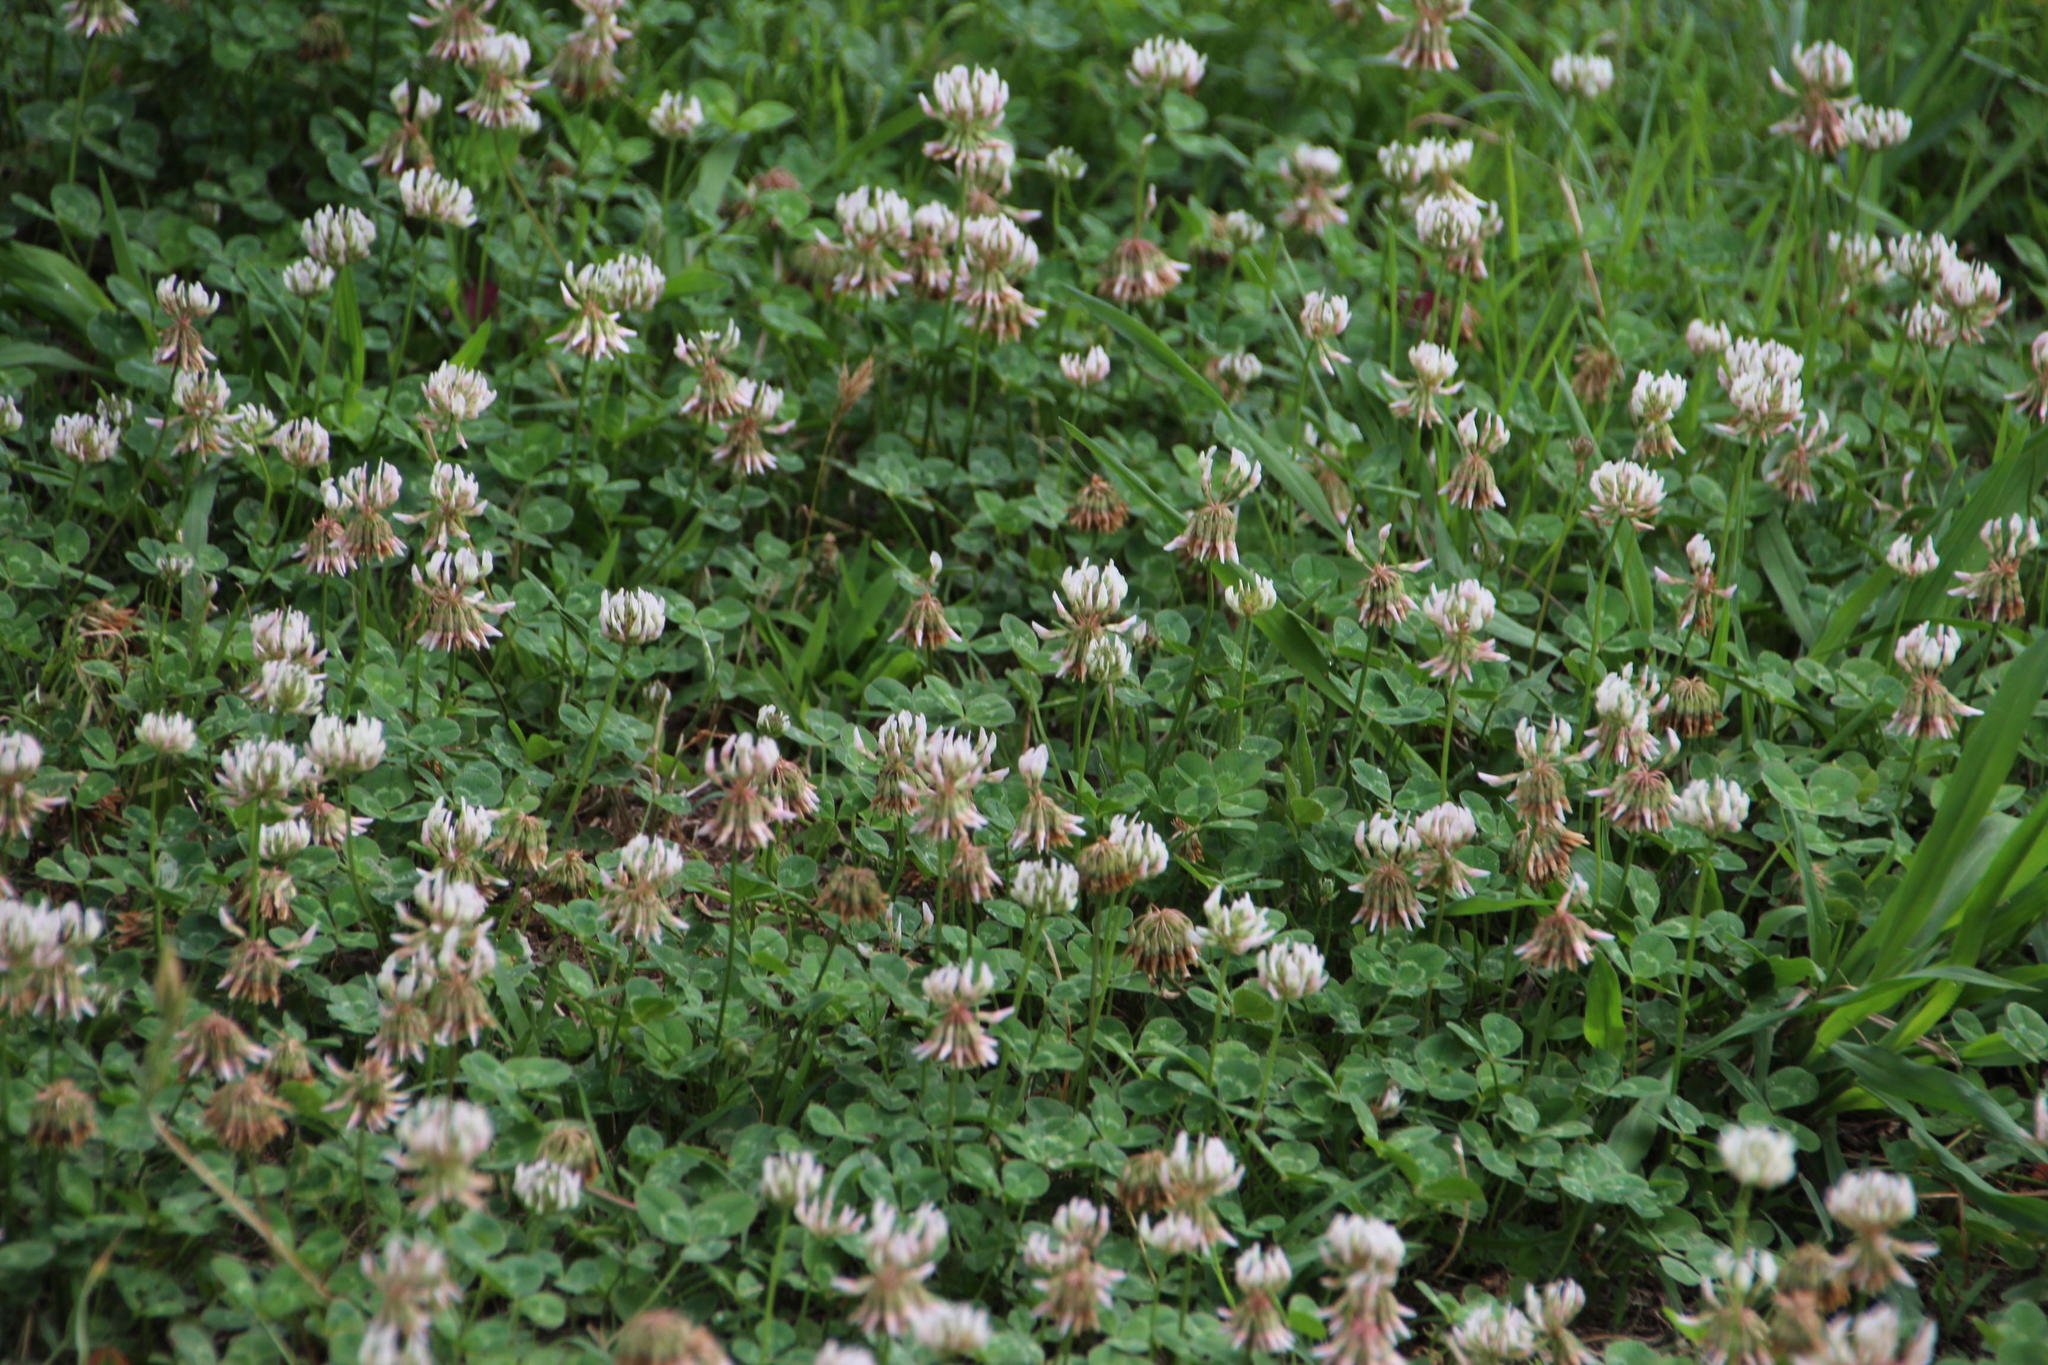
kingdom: Plantae
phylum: Tracheophyta
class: Magnoliopsida
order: Fabales
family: Fabaceae
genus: Trifolium
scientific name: Trifolium repens
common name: White clover
